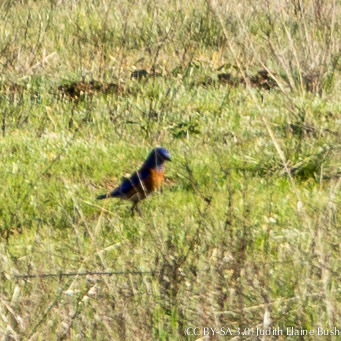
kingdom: Animalia
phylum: Chordata
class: Aves
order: Passeriformes
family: Turdidae
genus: Sialia
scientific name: Sialia mexicana
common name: Western bluebird
